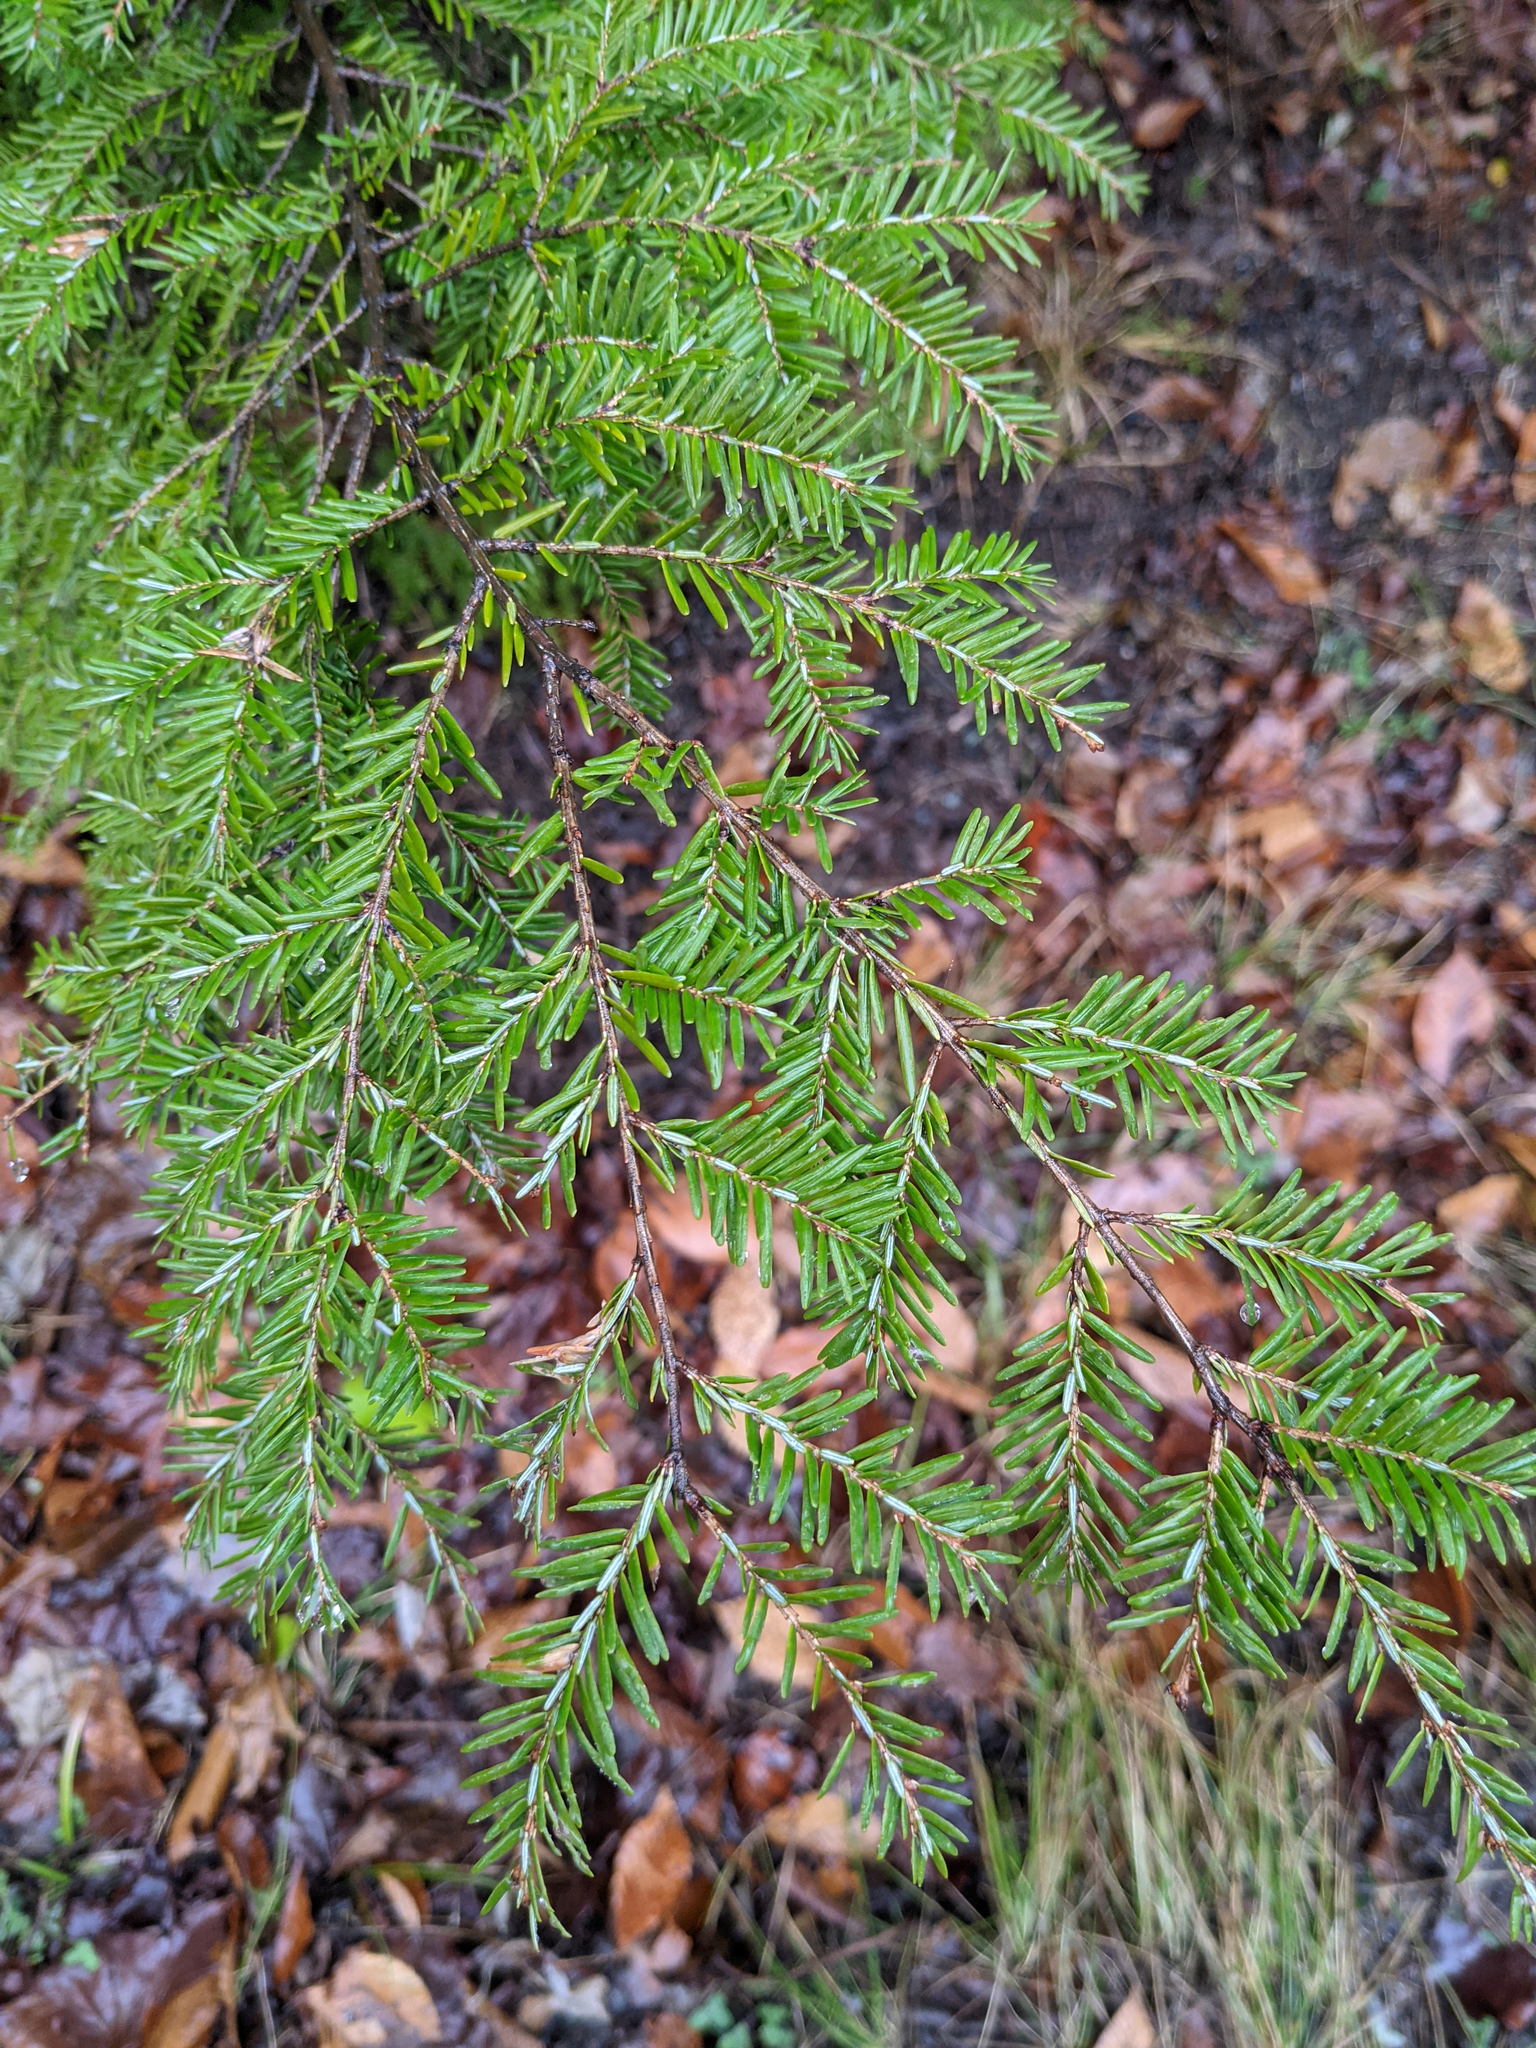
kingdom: Plantae
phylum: Tracheophyta
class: Pinopsida
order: Pinales
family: Pinaceae
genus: Tsuga
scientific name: Tsuga canadensis
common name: Eastern hemlock
